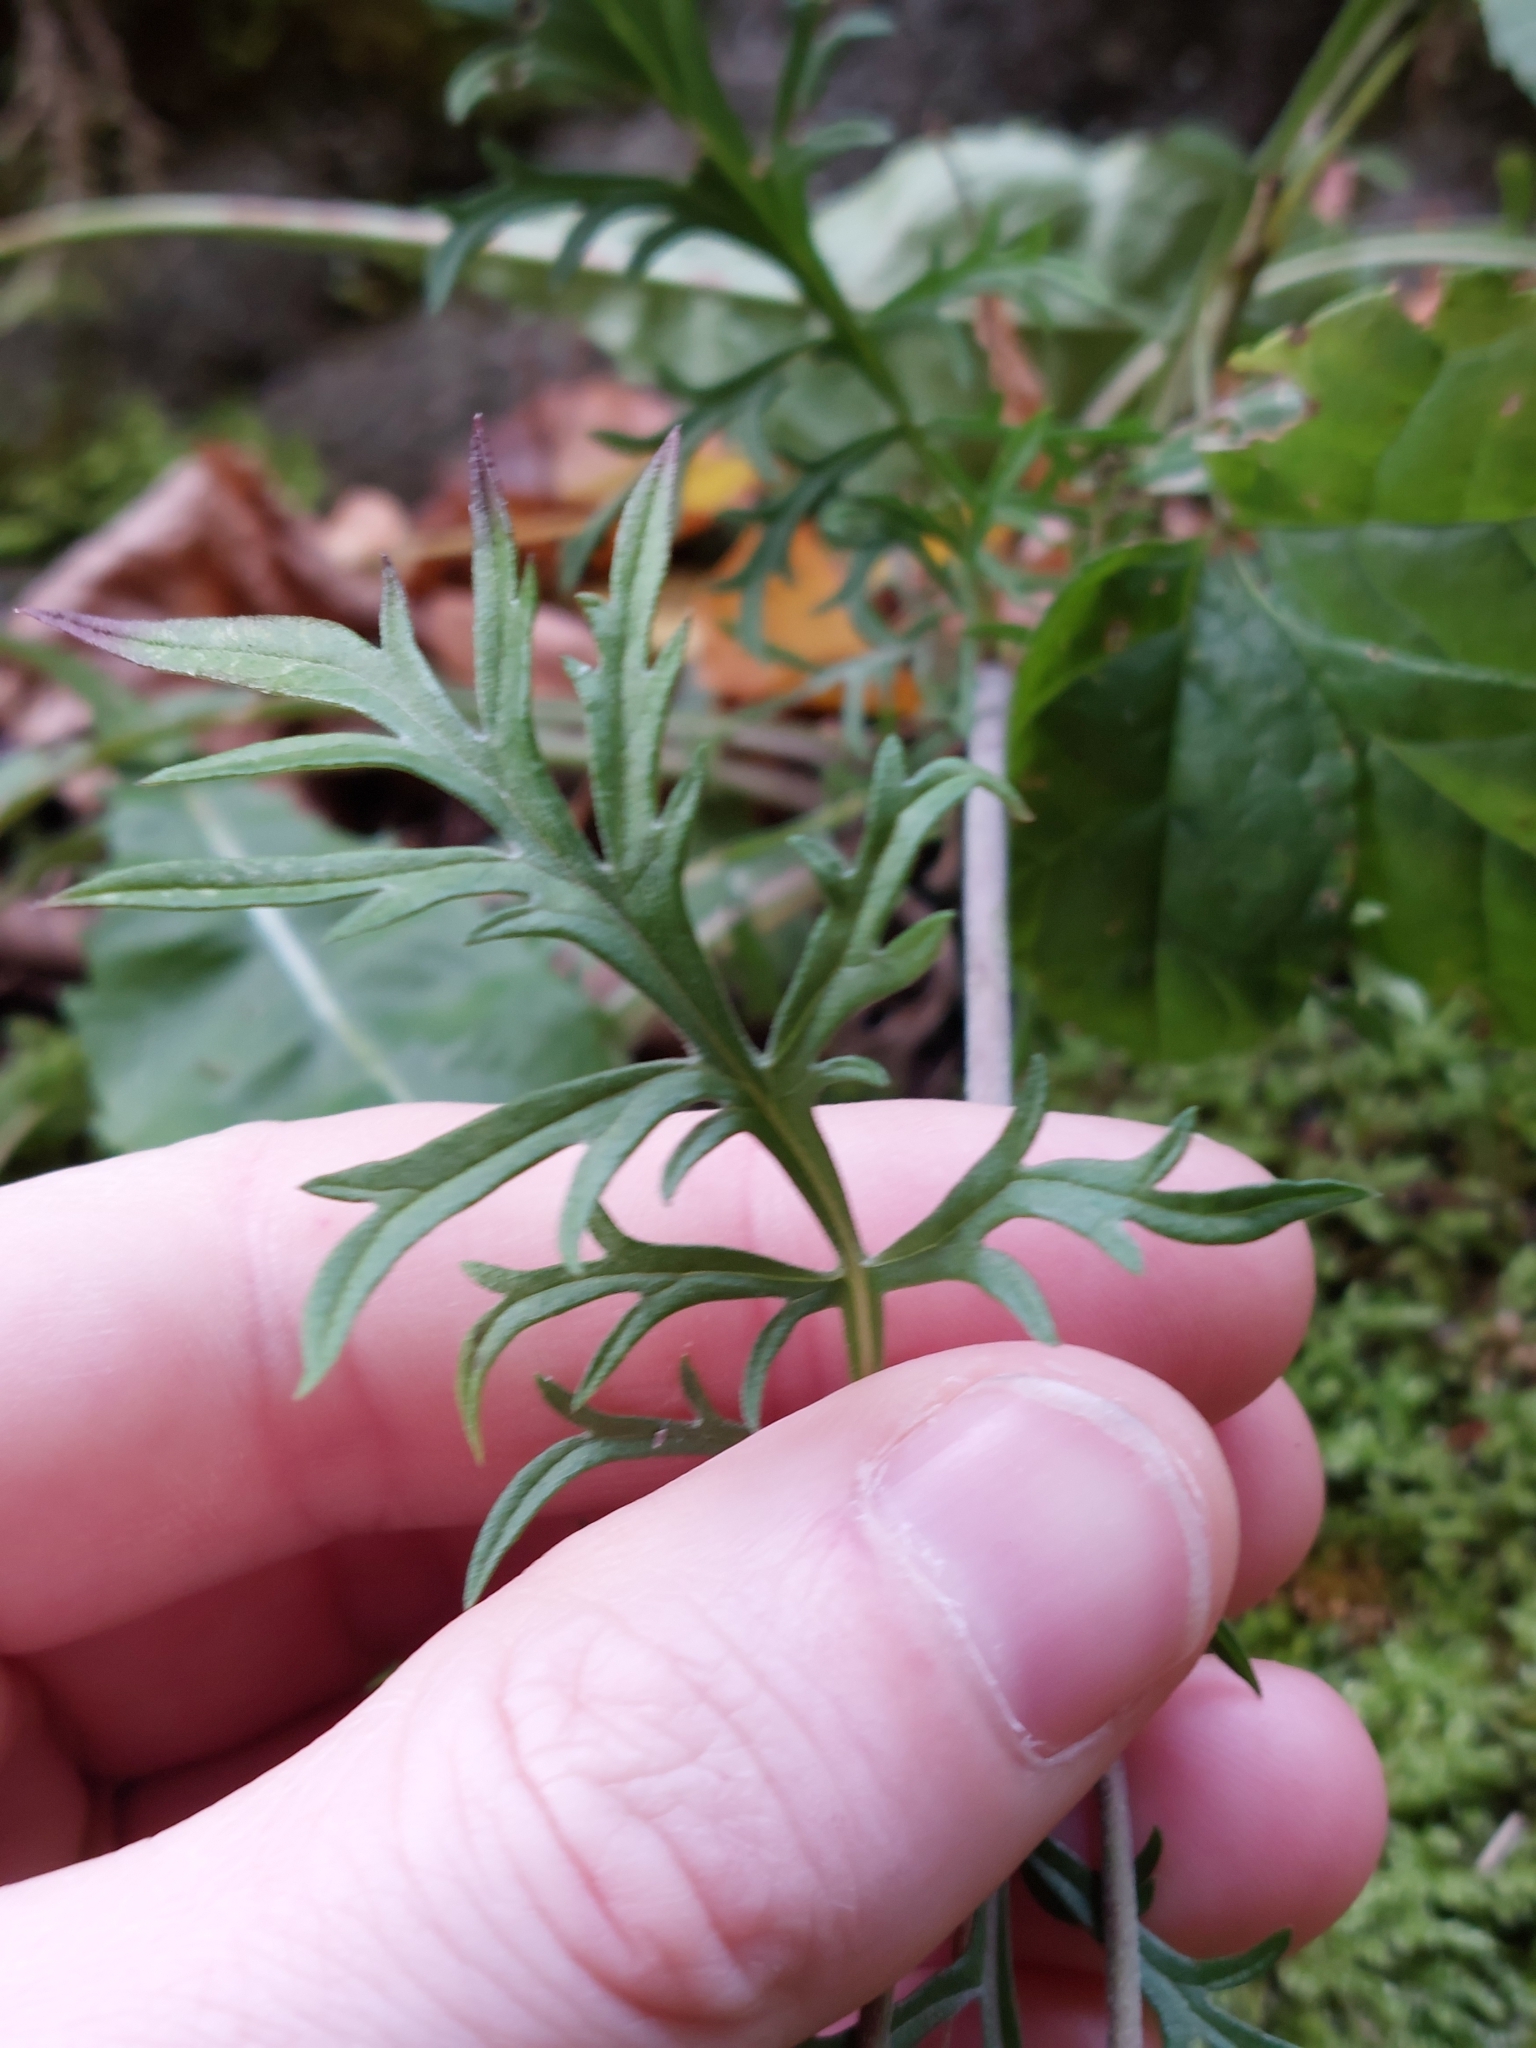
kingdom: Plantae
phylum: Tracheophyta
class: Magnoliopsida
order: Dipsacales
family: Caprifoliaceae
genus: Scabiosa
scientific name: Scabiosa columbaria
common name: Small scabious
